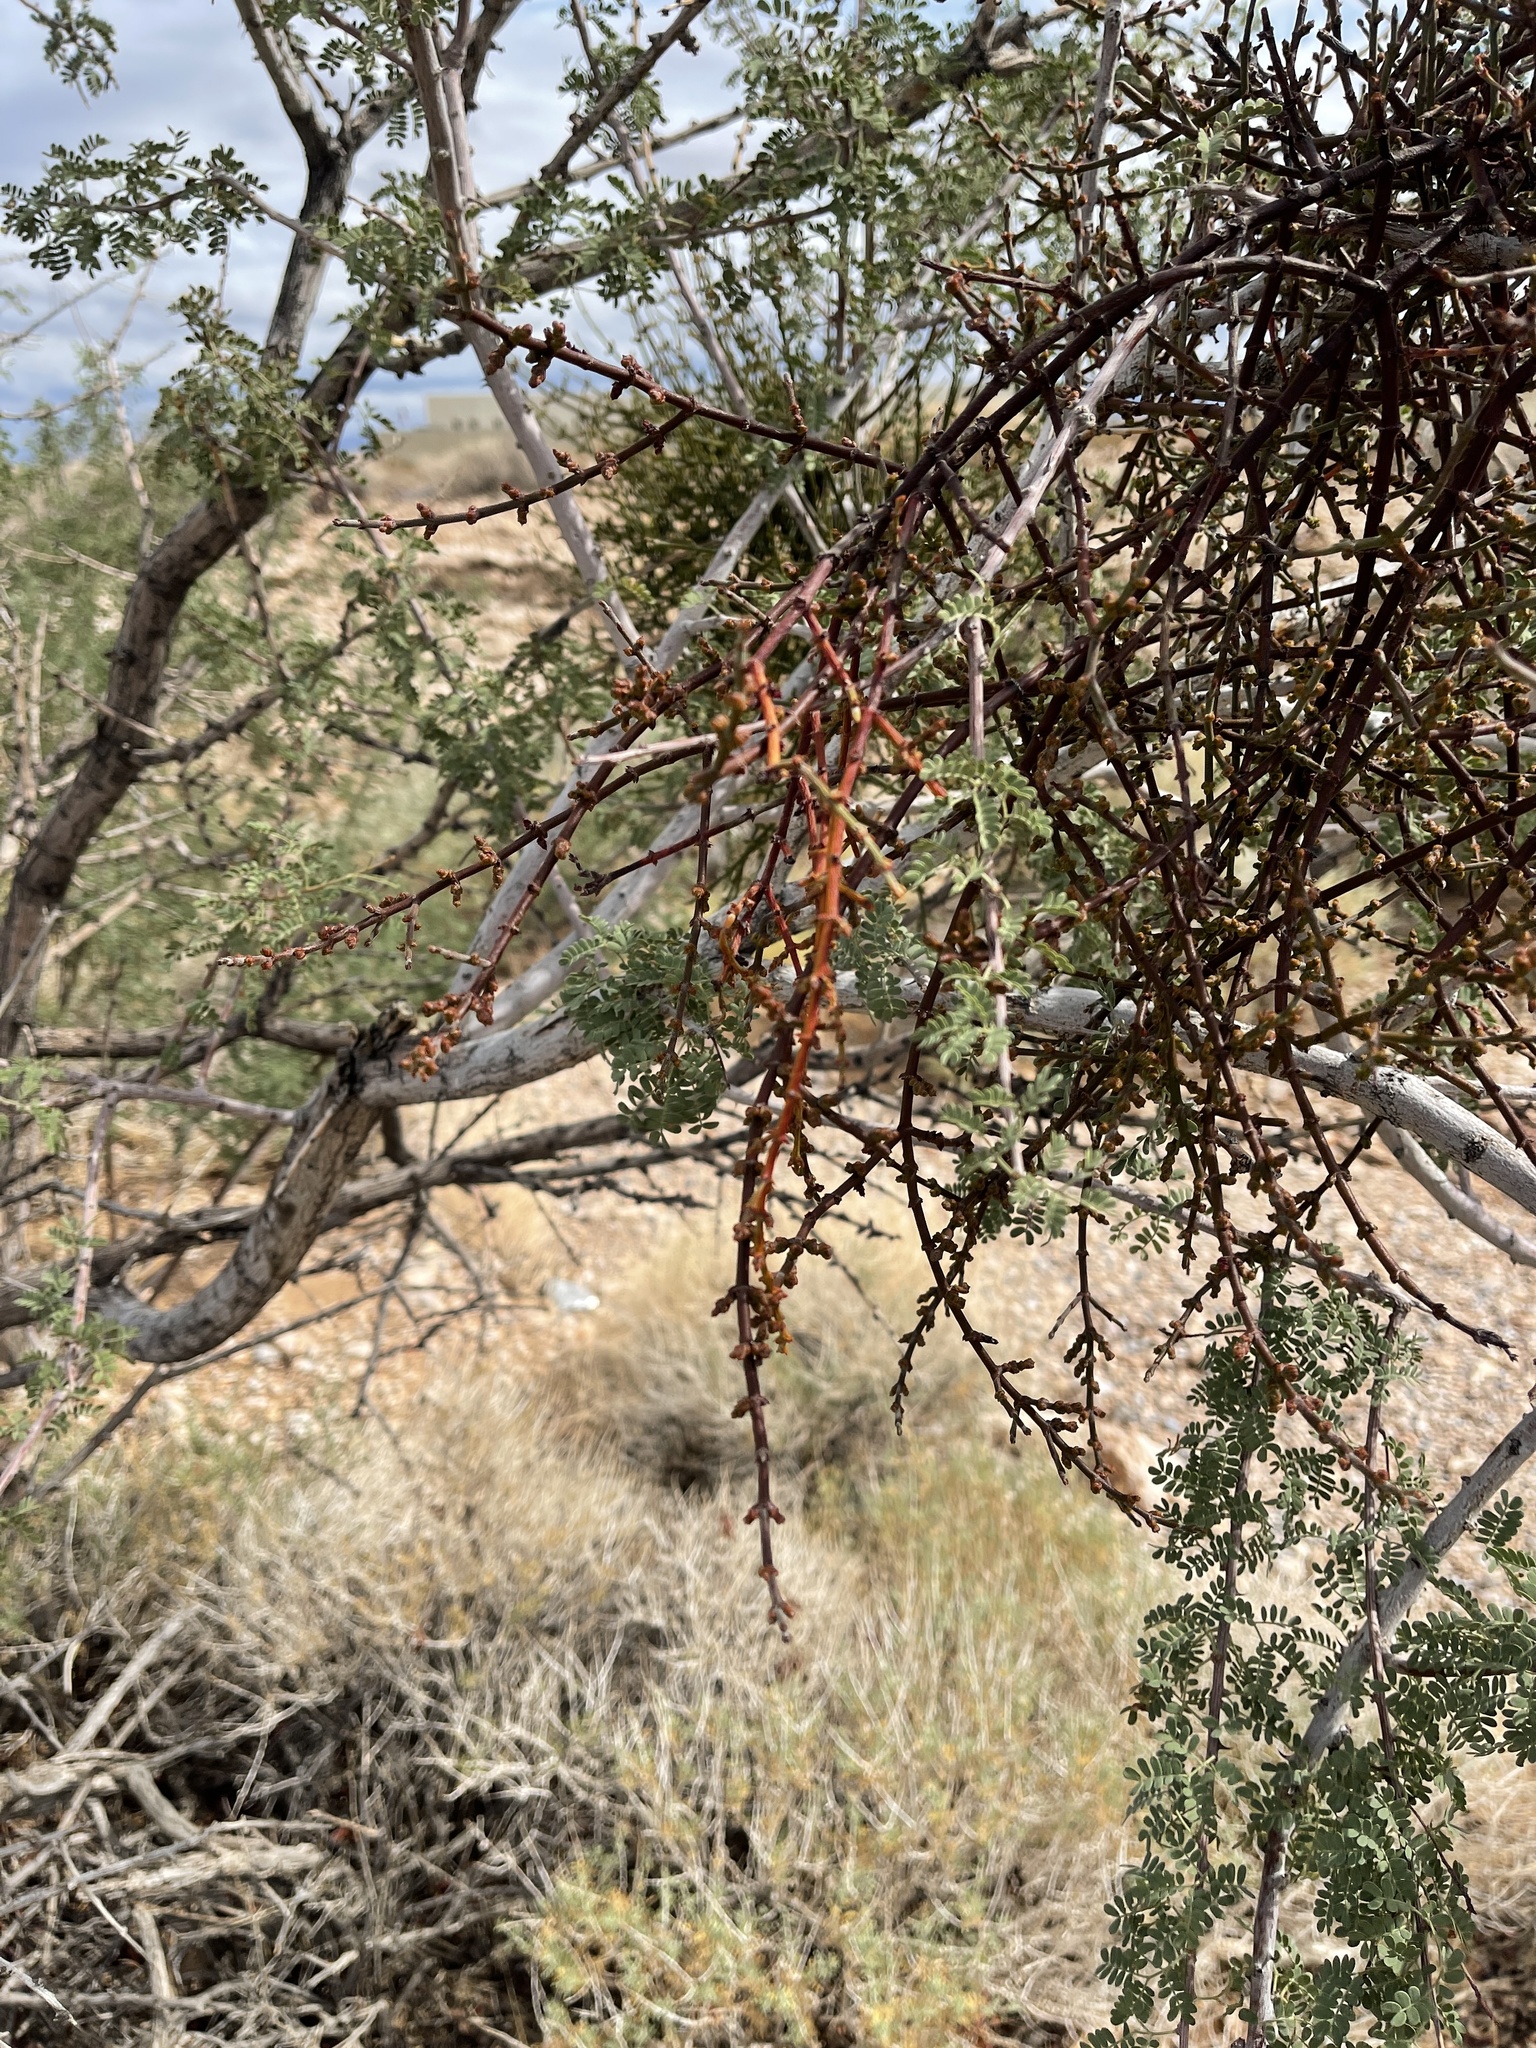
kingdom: Plantae
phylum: Tracheophyta
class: Magnoliopsida
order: Santalales
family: Viscaceae
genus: Phoradendron
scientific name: Phoradendron californicum
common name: Acacia mistletoe
